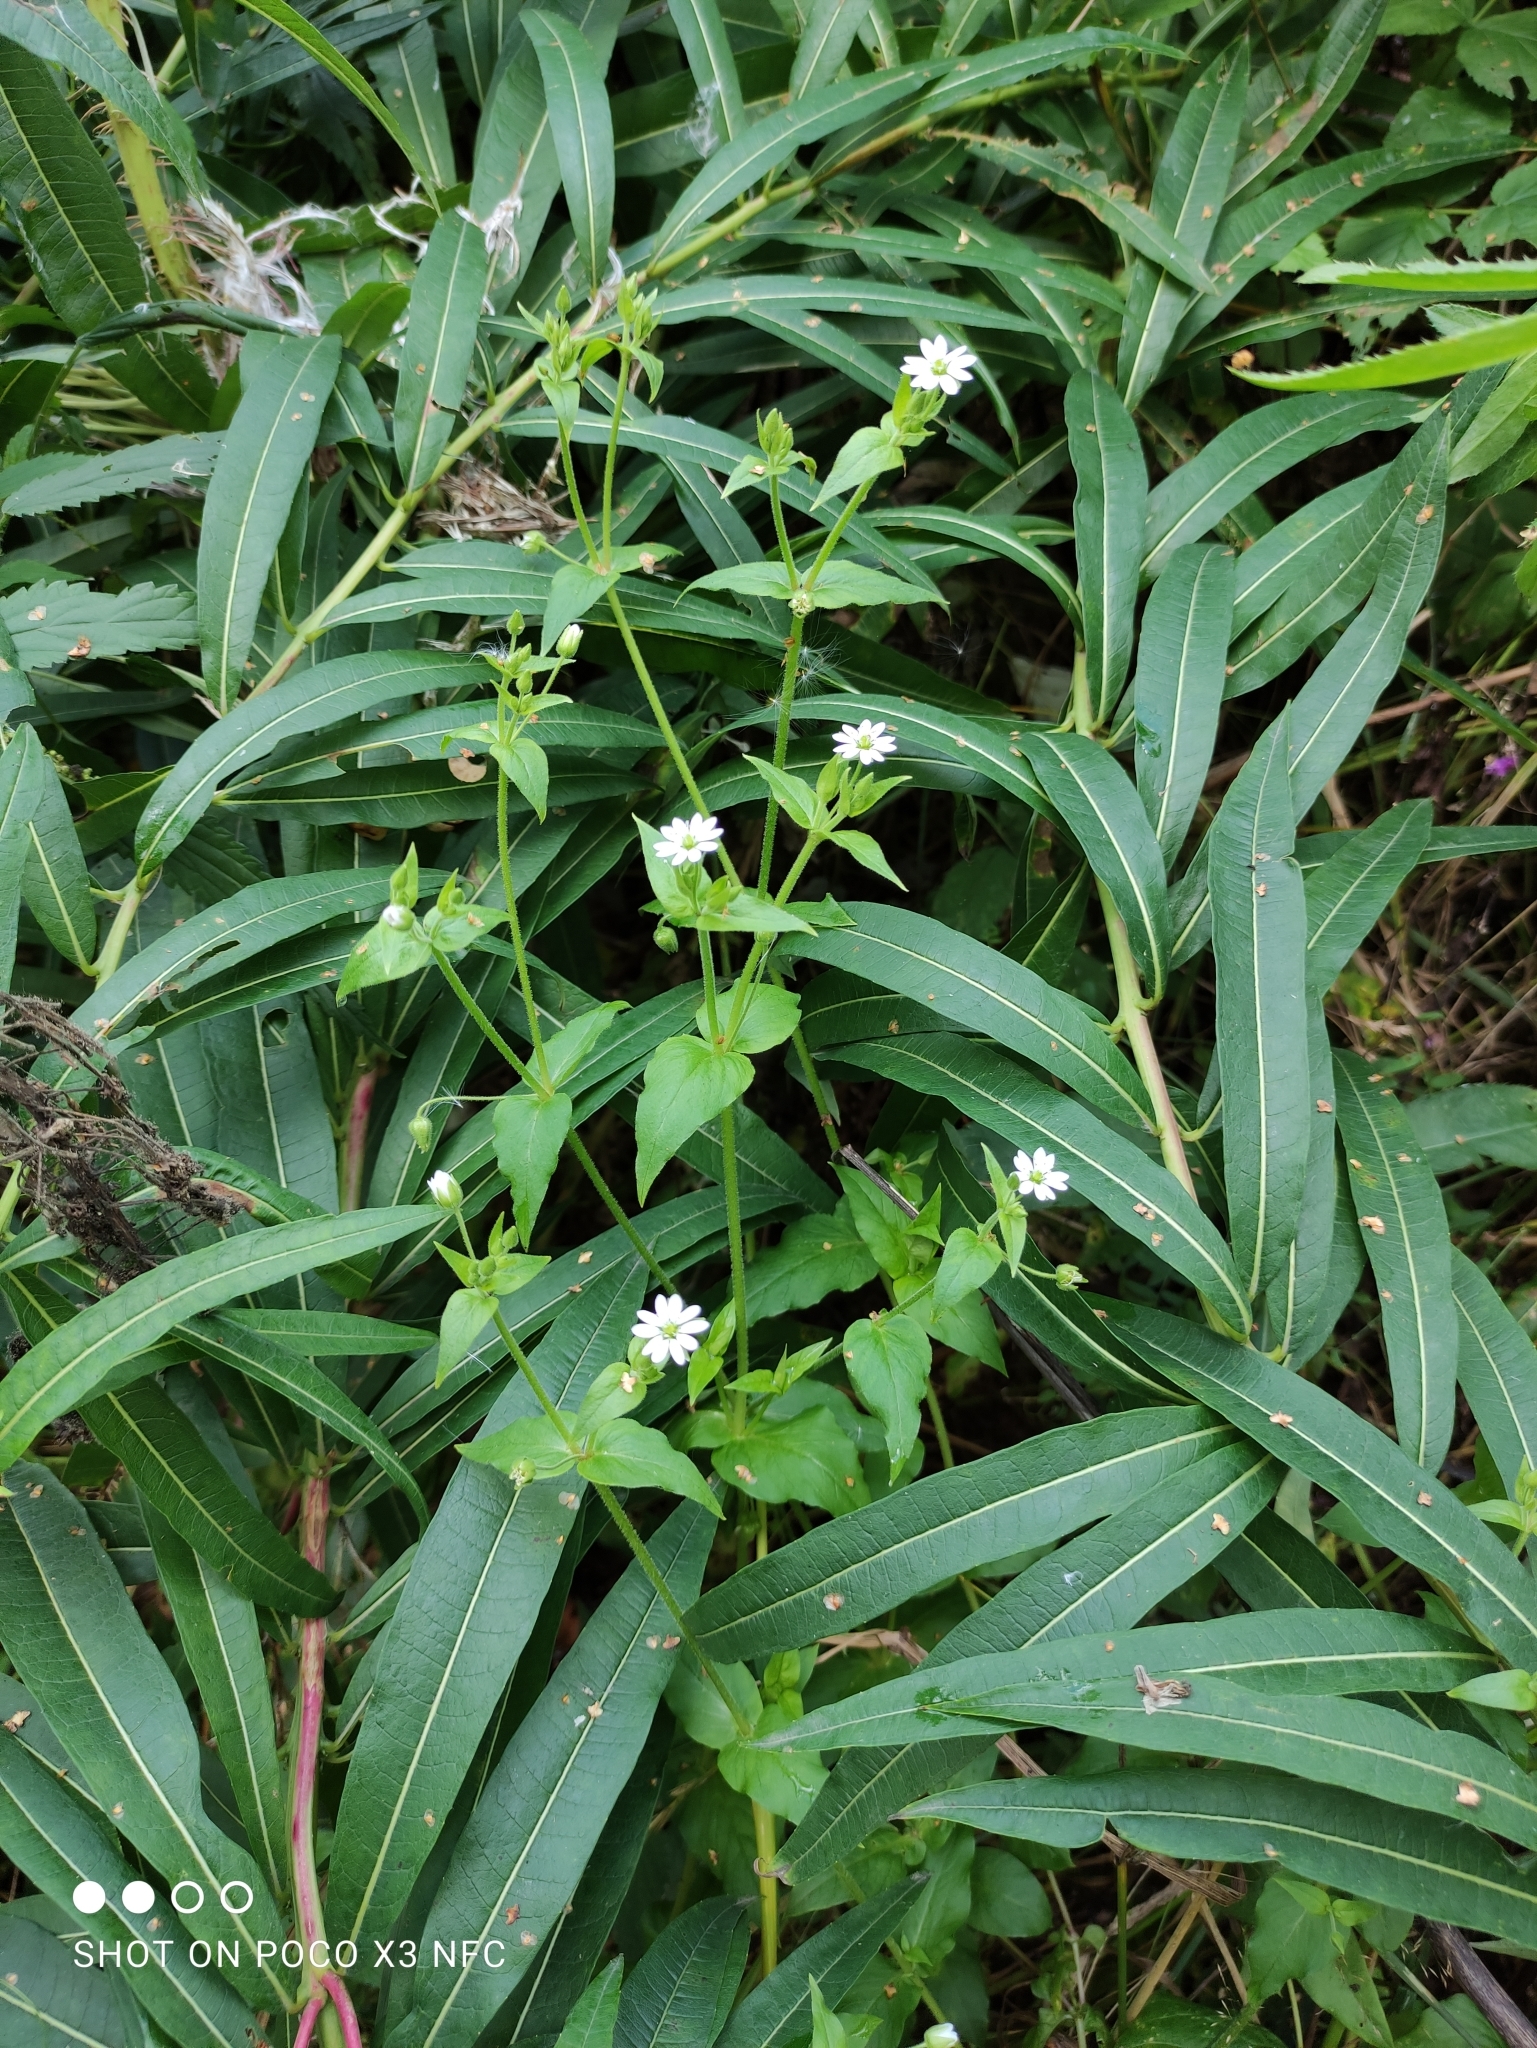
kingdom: Plantae
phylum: Tracheophyta
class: Magnoliopsida
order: Caryophyllales
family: Caryophyllaceae
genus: Stellaria
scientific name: Stellaria aquatica
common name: Water chickweed
